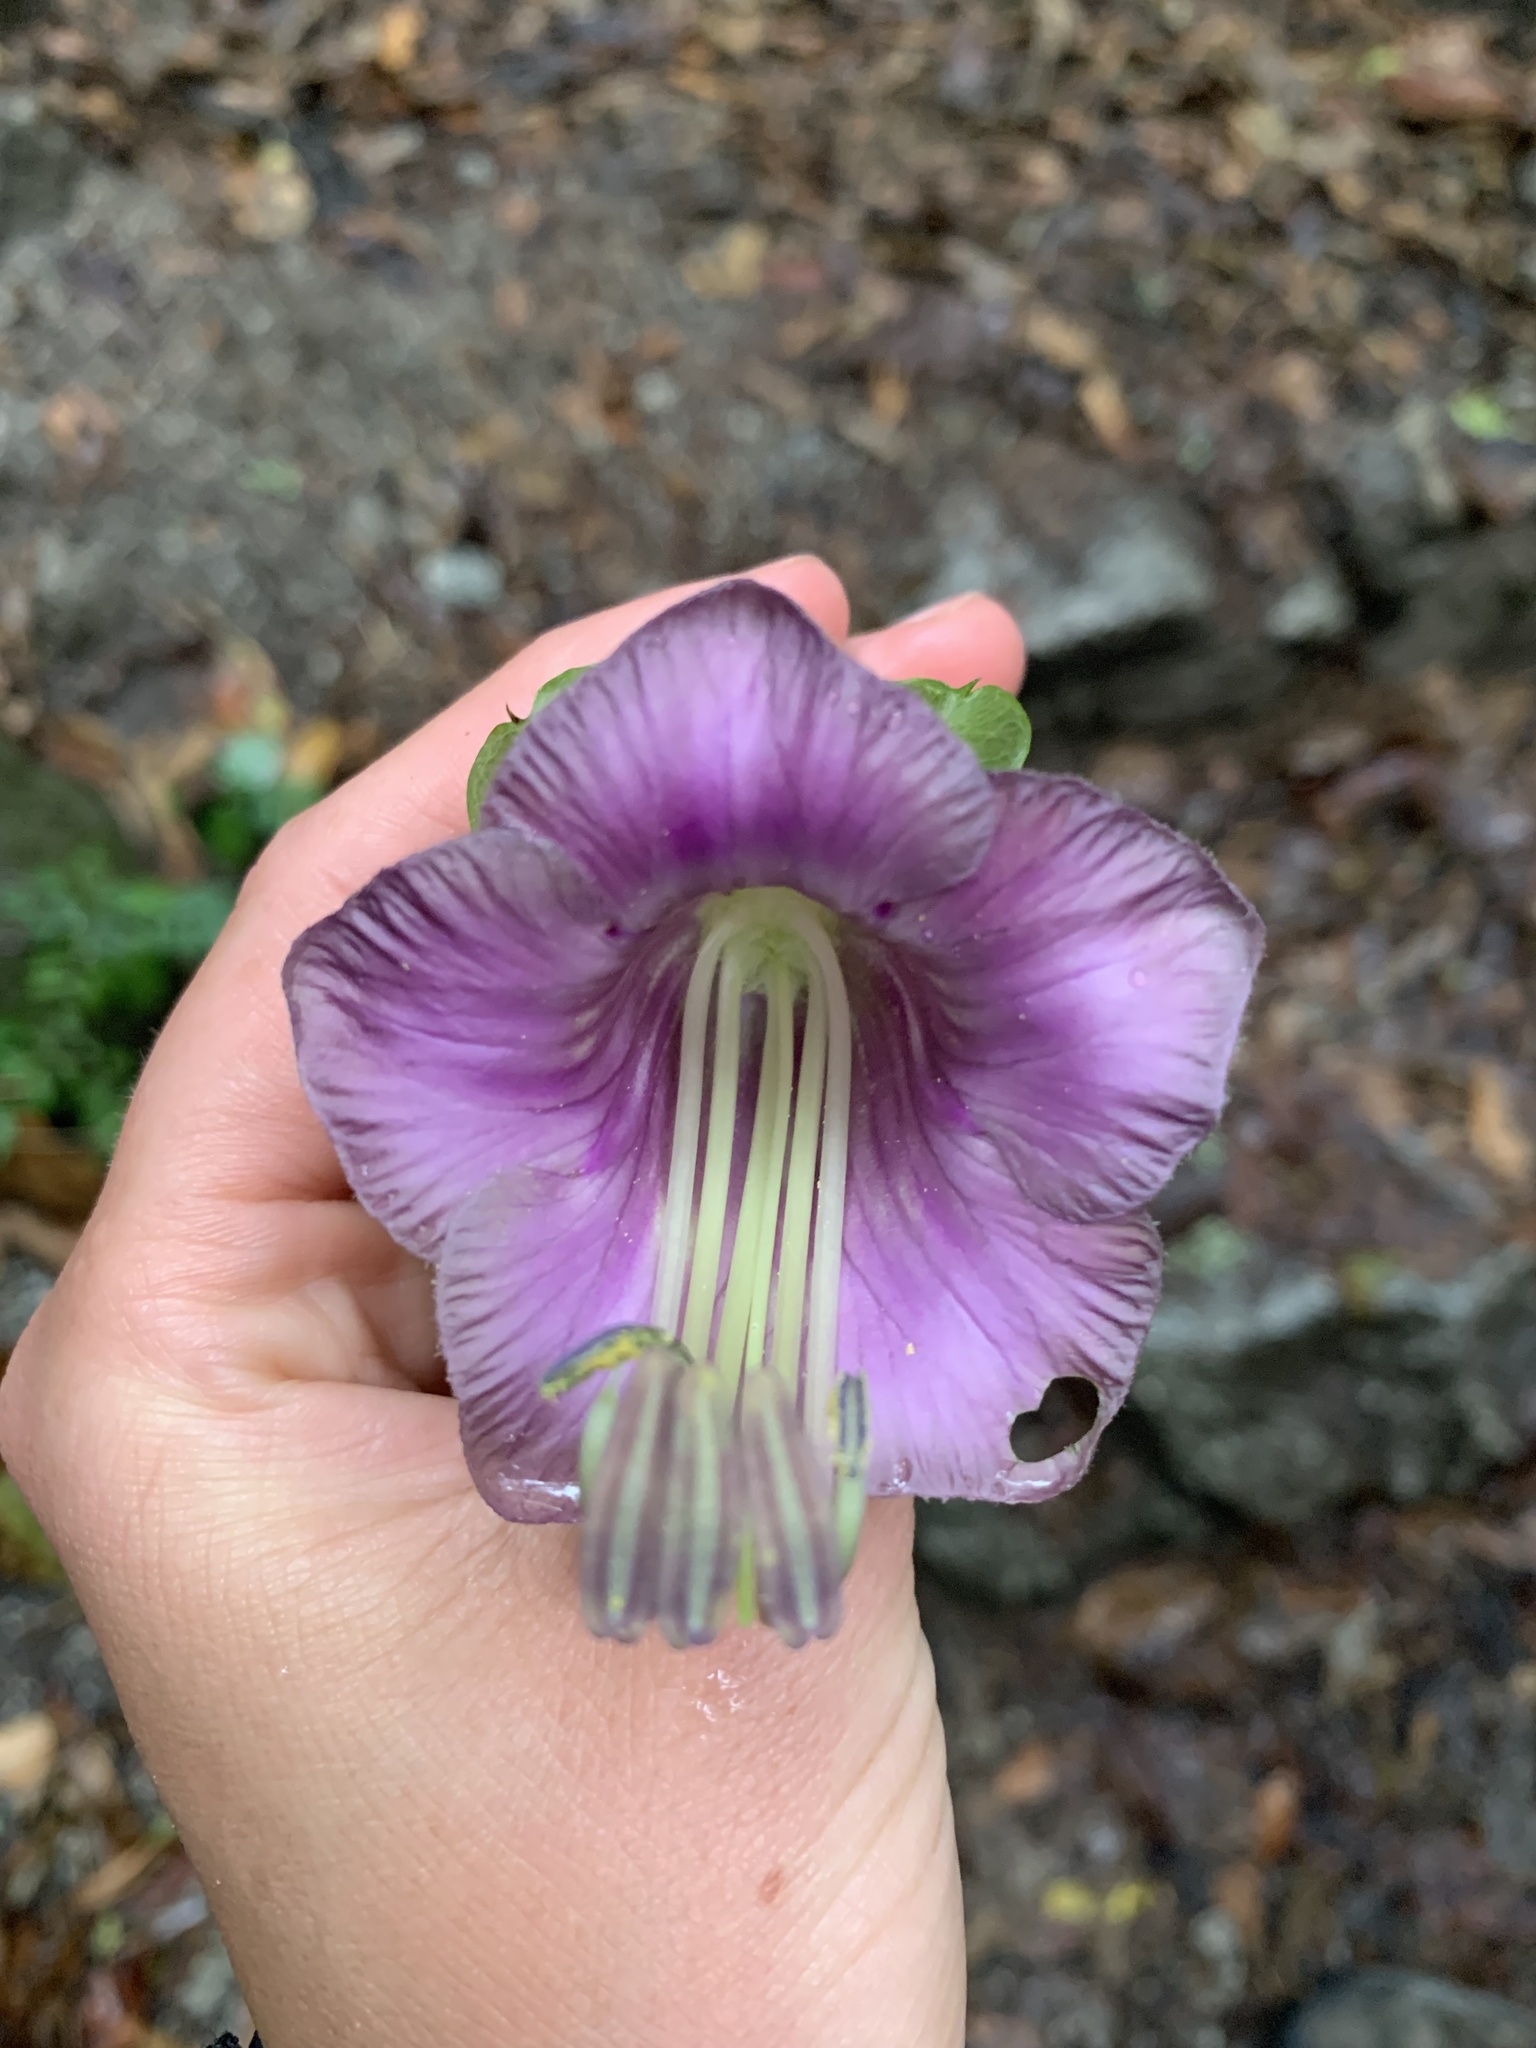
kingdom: Plantae
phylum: Tracheophyta
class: Magnoliopsida
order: Ericales
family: Polemoniaceae
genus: Cobaea
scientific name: Cobaea scandens
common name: Cup-and-saucer-vine
